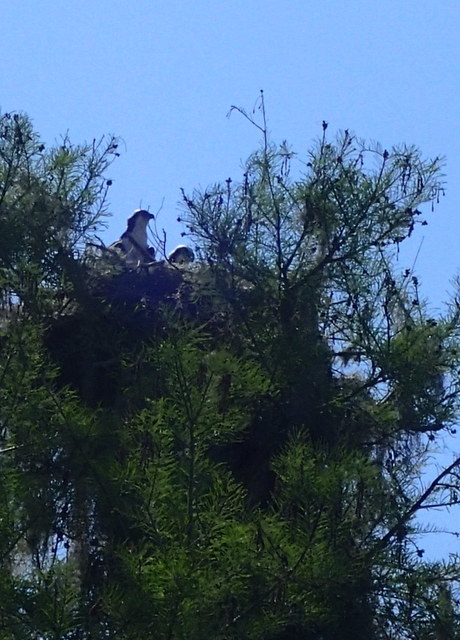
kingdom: Animalia
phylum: Chordata
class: Aves
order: Accipitriformes
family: Pandionidae
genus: Pandion
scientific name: Pandion haliaetus
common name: Osprey
